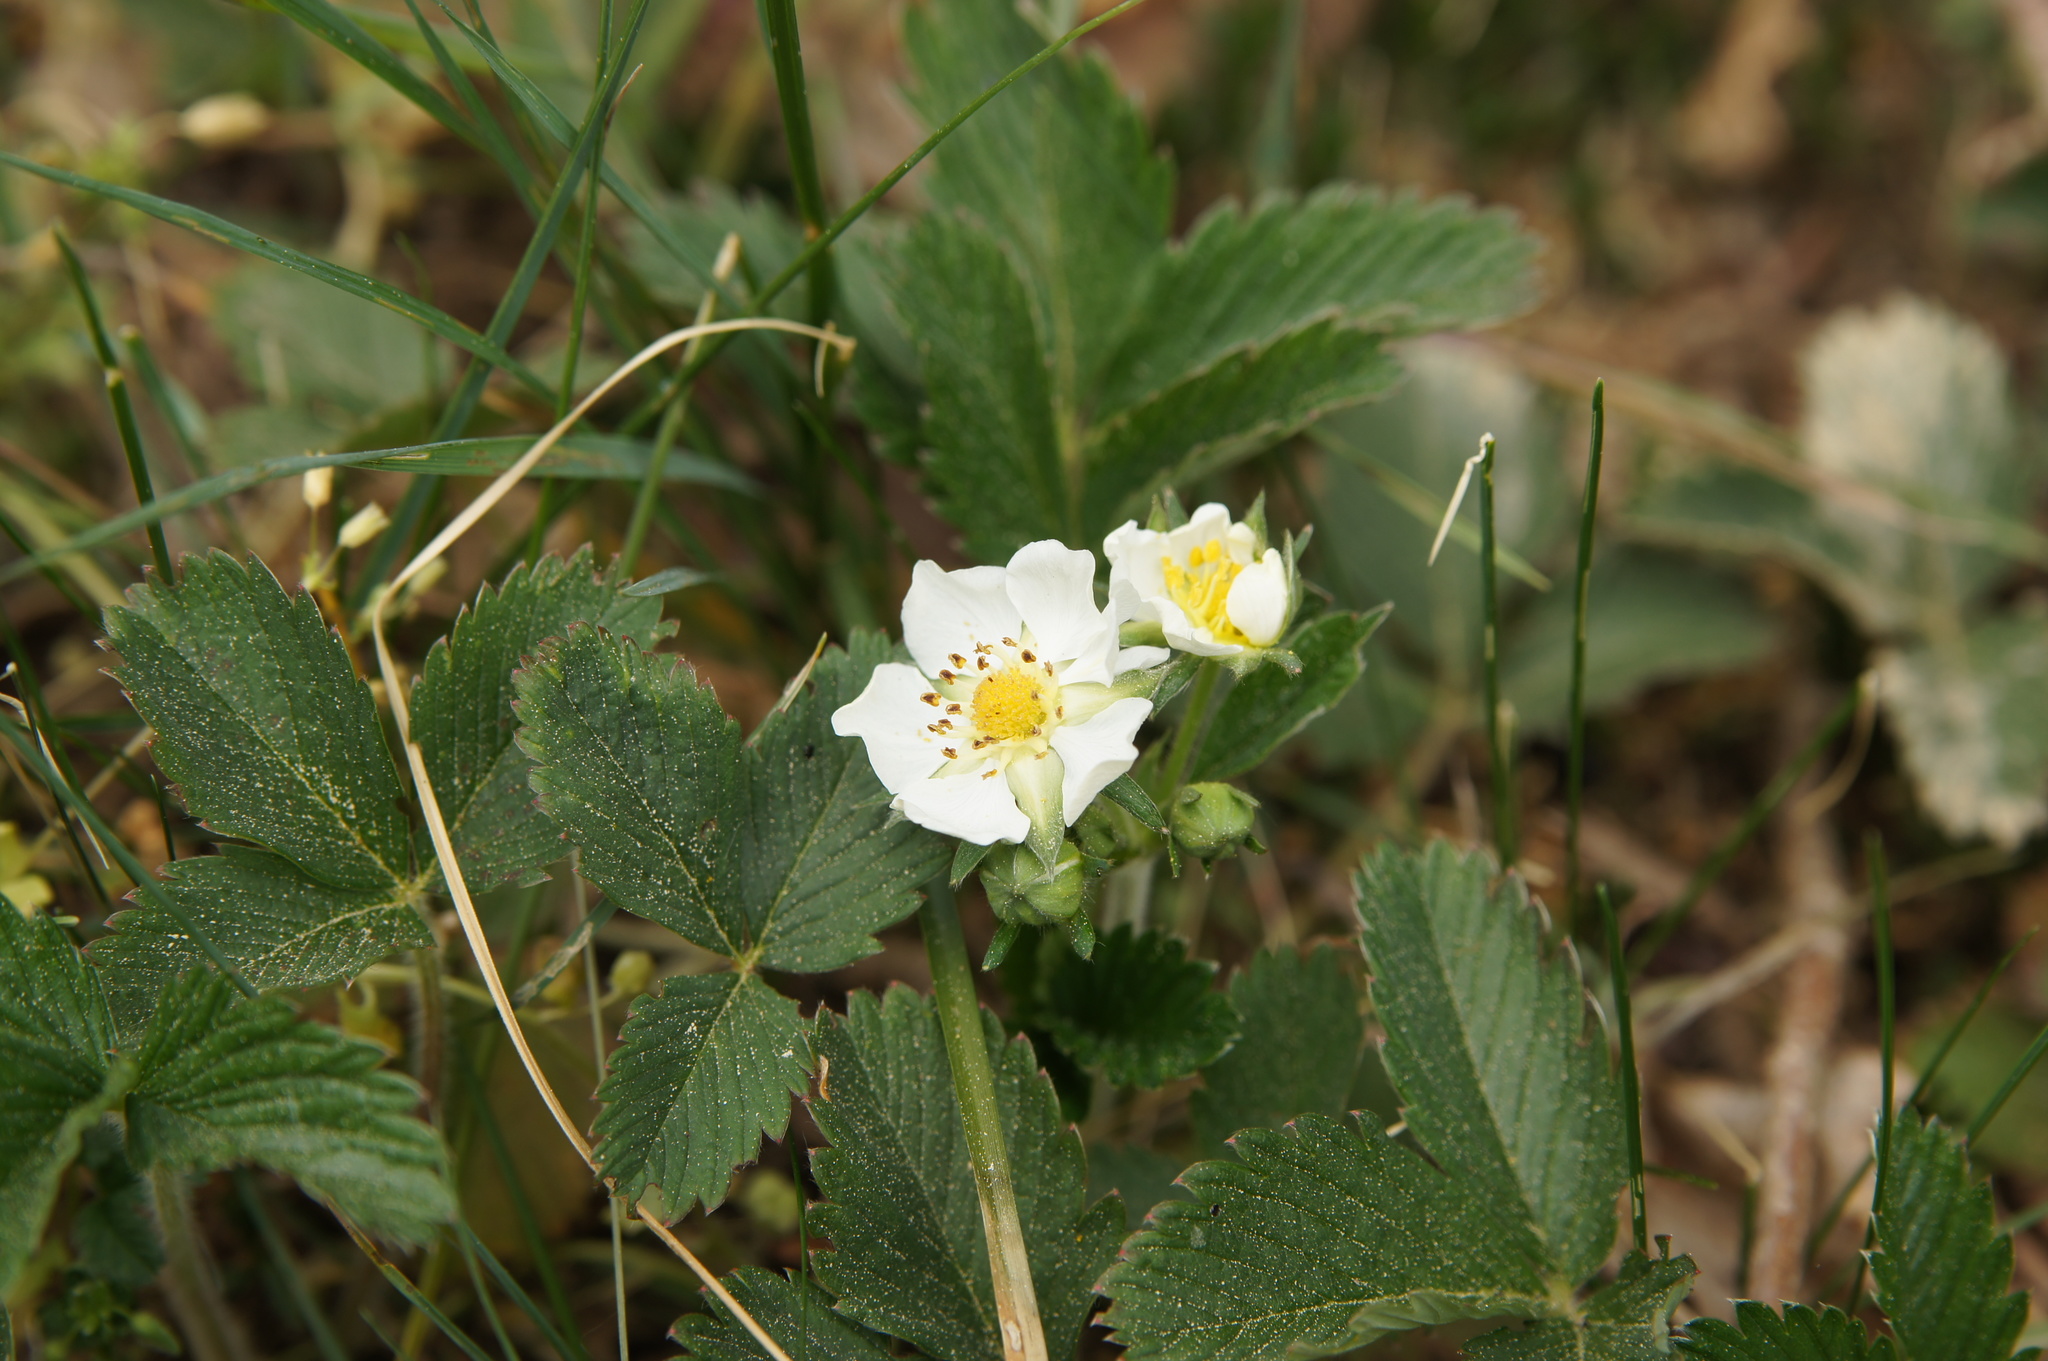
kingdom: Plantae
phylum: Tracheophyta
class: Magnoliopsida
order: Rosales
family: Rosaceae
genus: Fragaria
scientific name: Fragaria viridis
